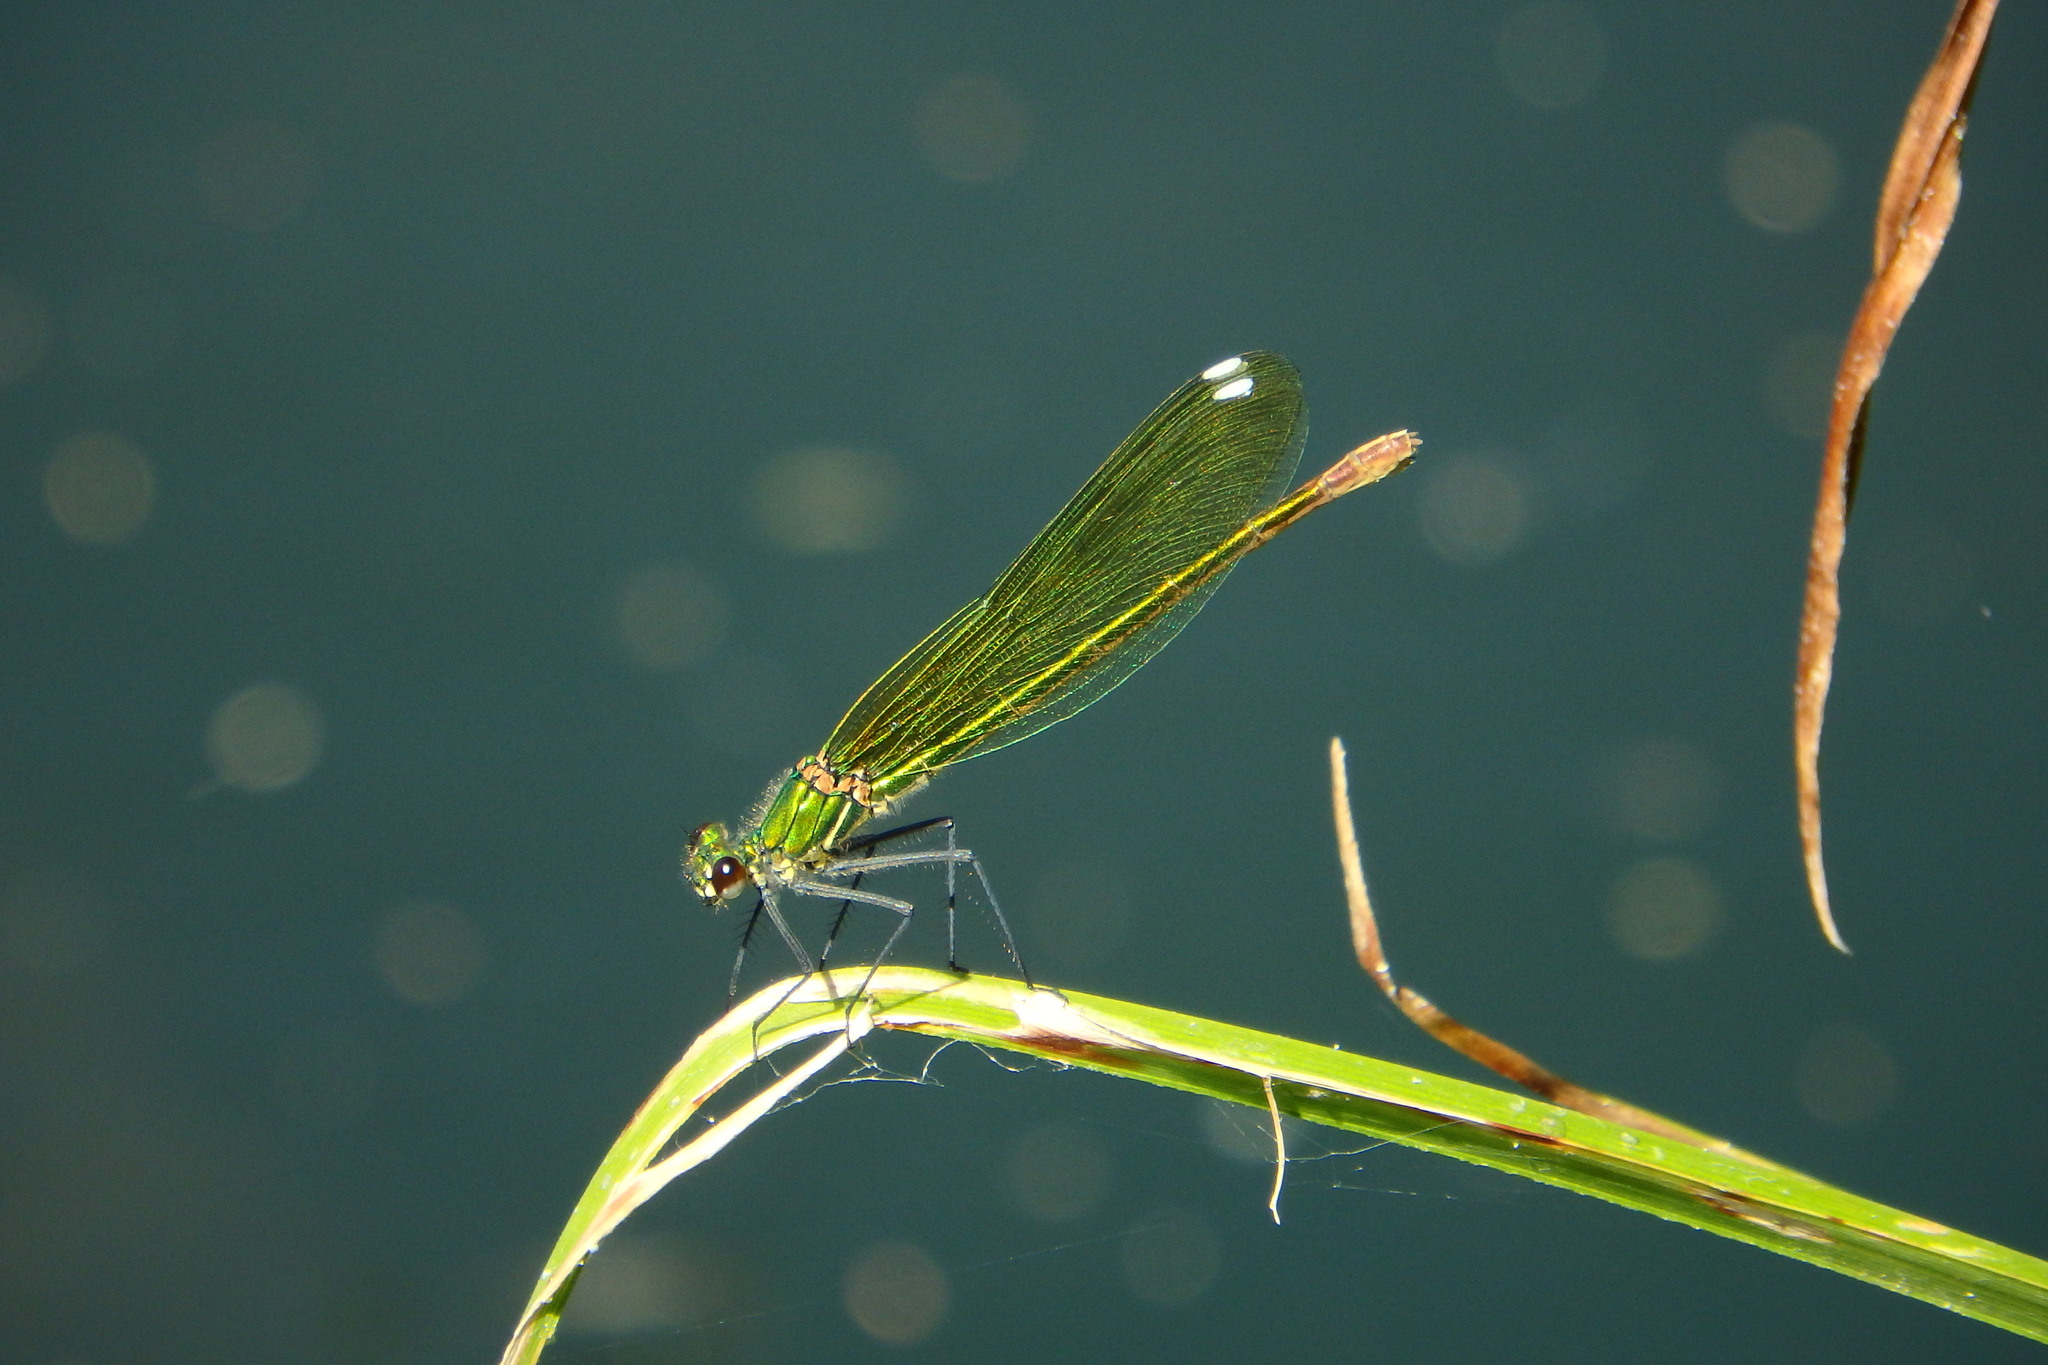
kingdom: Animalia
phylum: Arthropoda
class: Insecta
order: Odonata
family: Calopterygidae
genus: Calopteryx
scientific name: Calopteryx xanthostoma
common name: Western demoiselle
